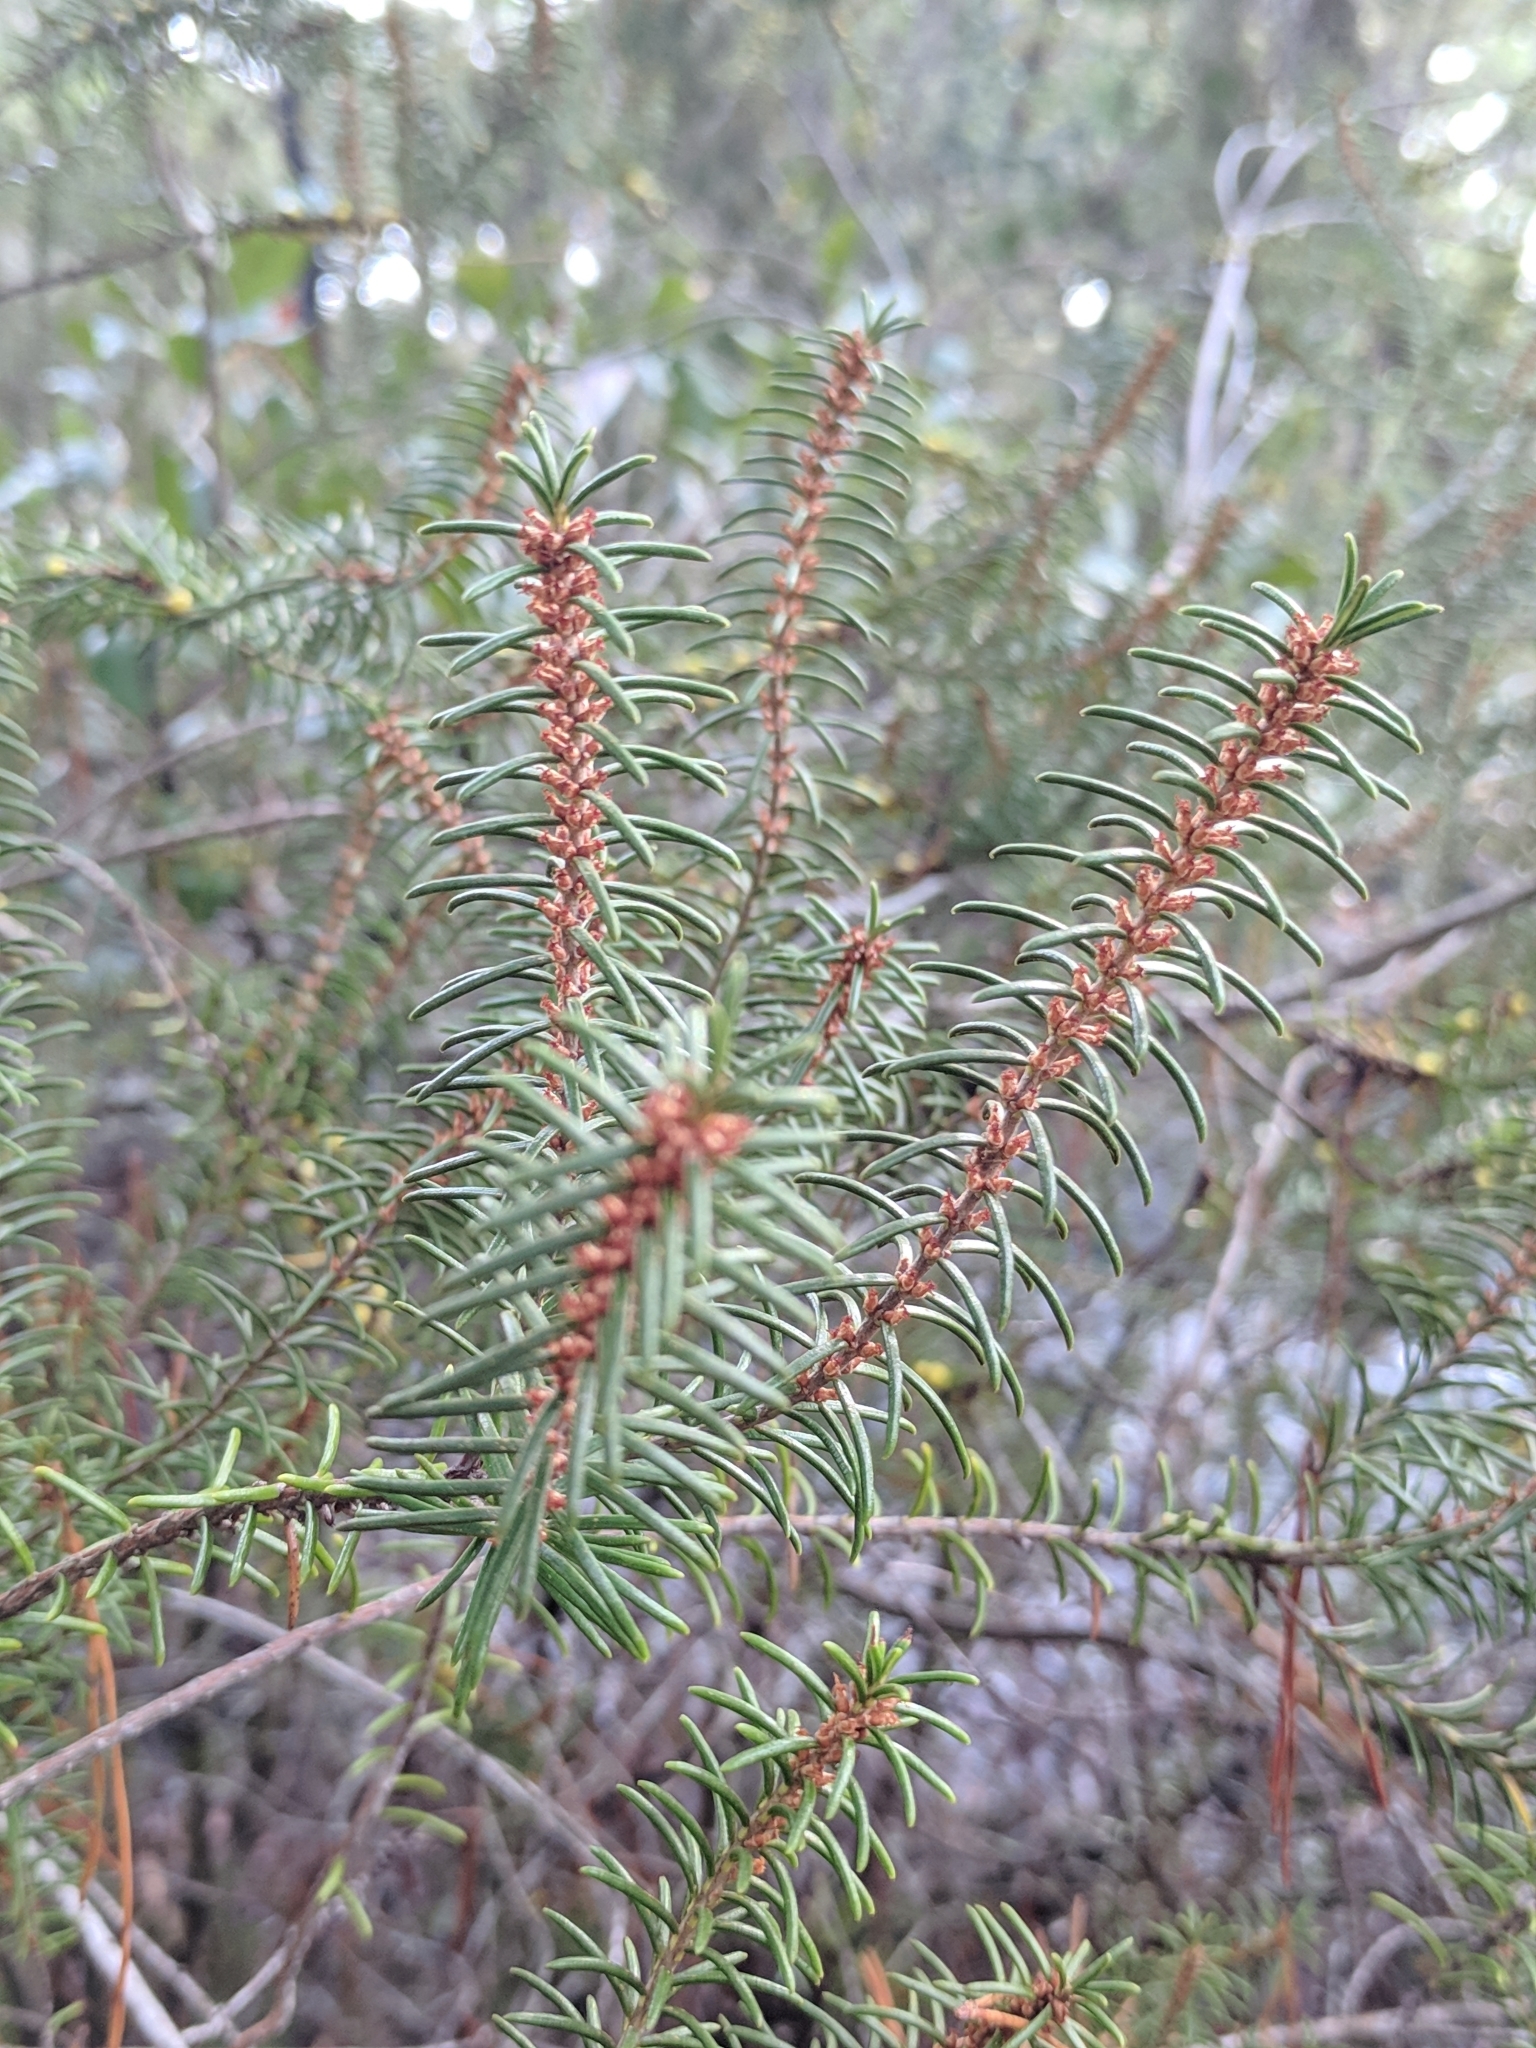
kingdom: Plantae
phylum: Tracheophyta
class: Magnoliopsida
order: Ericales
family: Ericaceae
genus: Ceratiola
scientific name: Ceratiola ericoides
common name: Sandhill-rosemary
